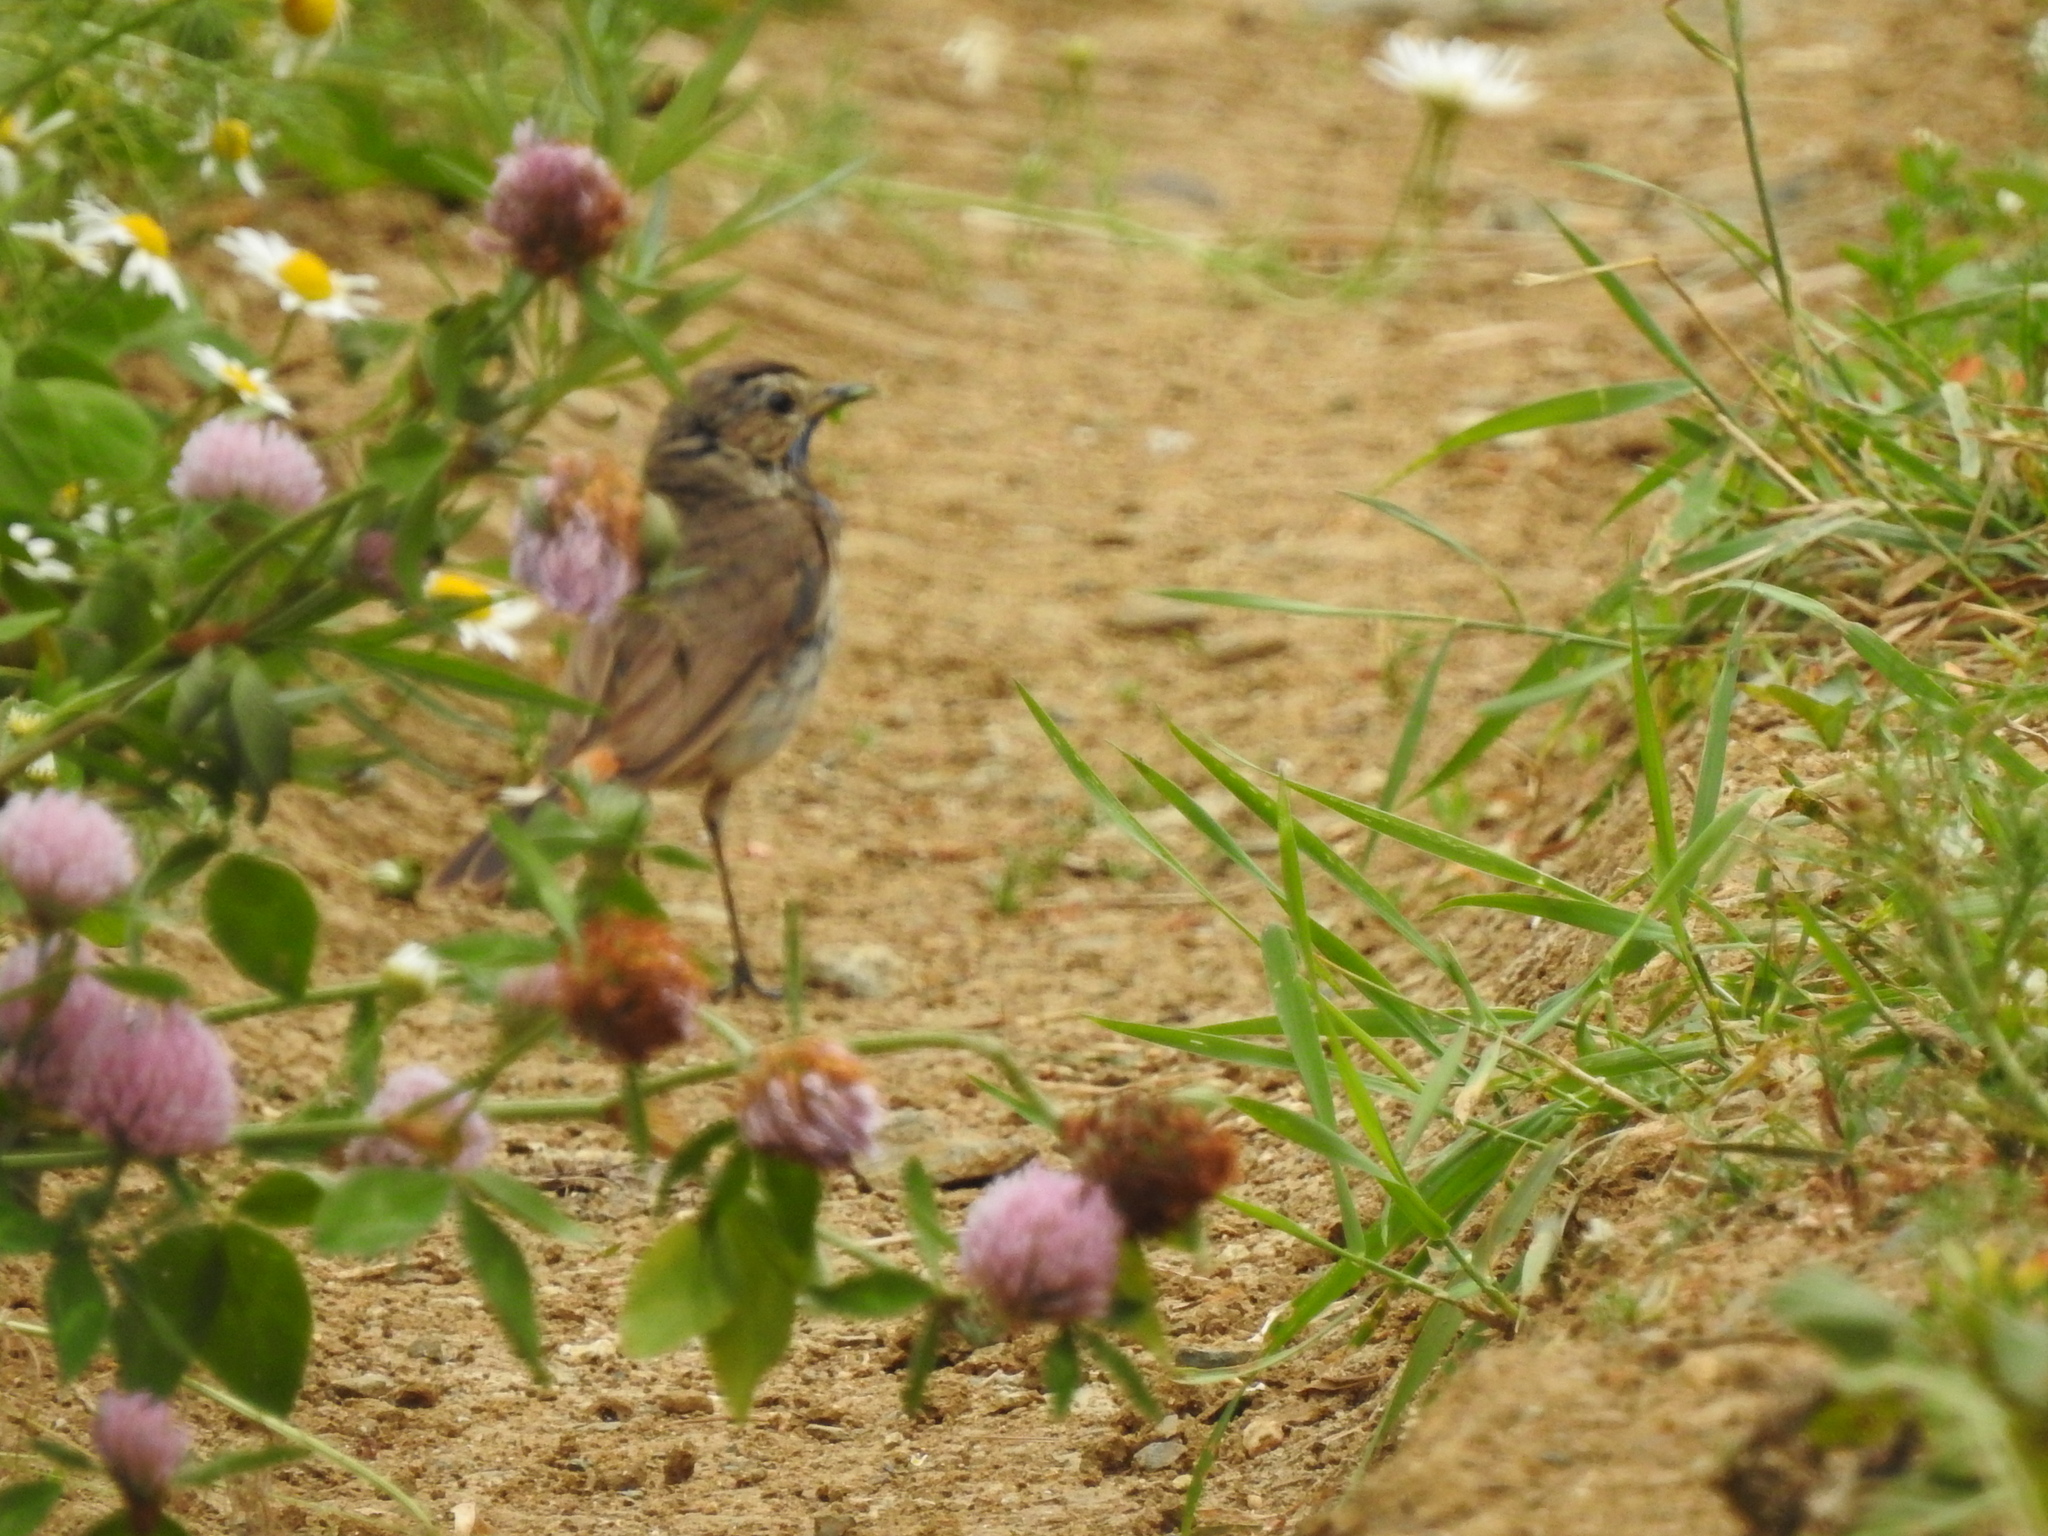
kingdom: Animalia
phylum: Chordata
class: Aves
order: Passeriformes
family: Muscicapidae
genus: Luscinia
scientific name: Luscinia svecica
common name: Bluethroat
